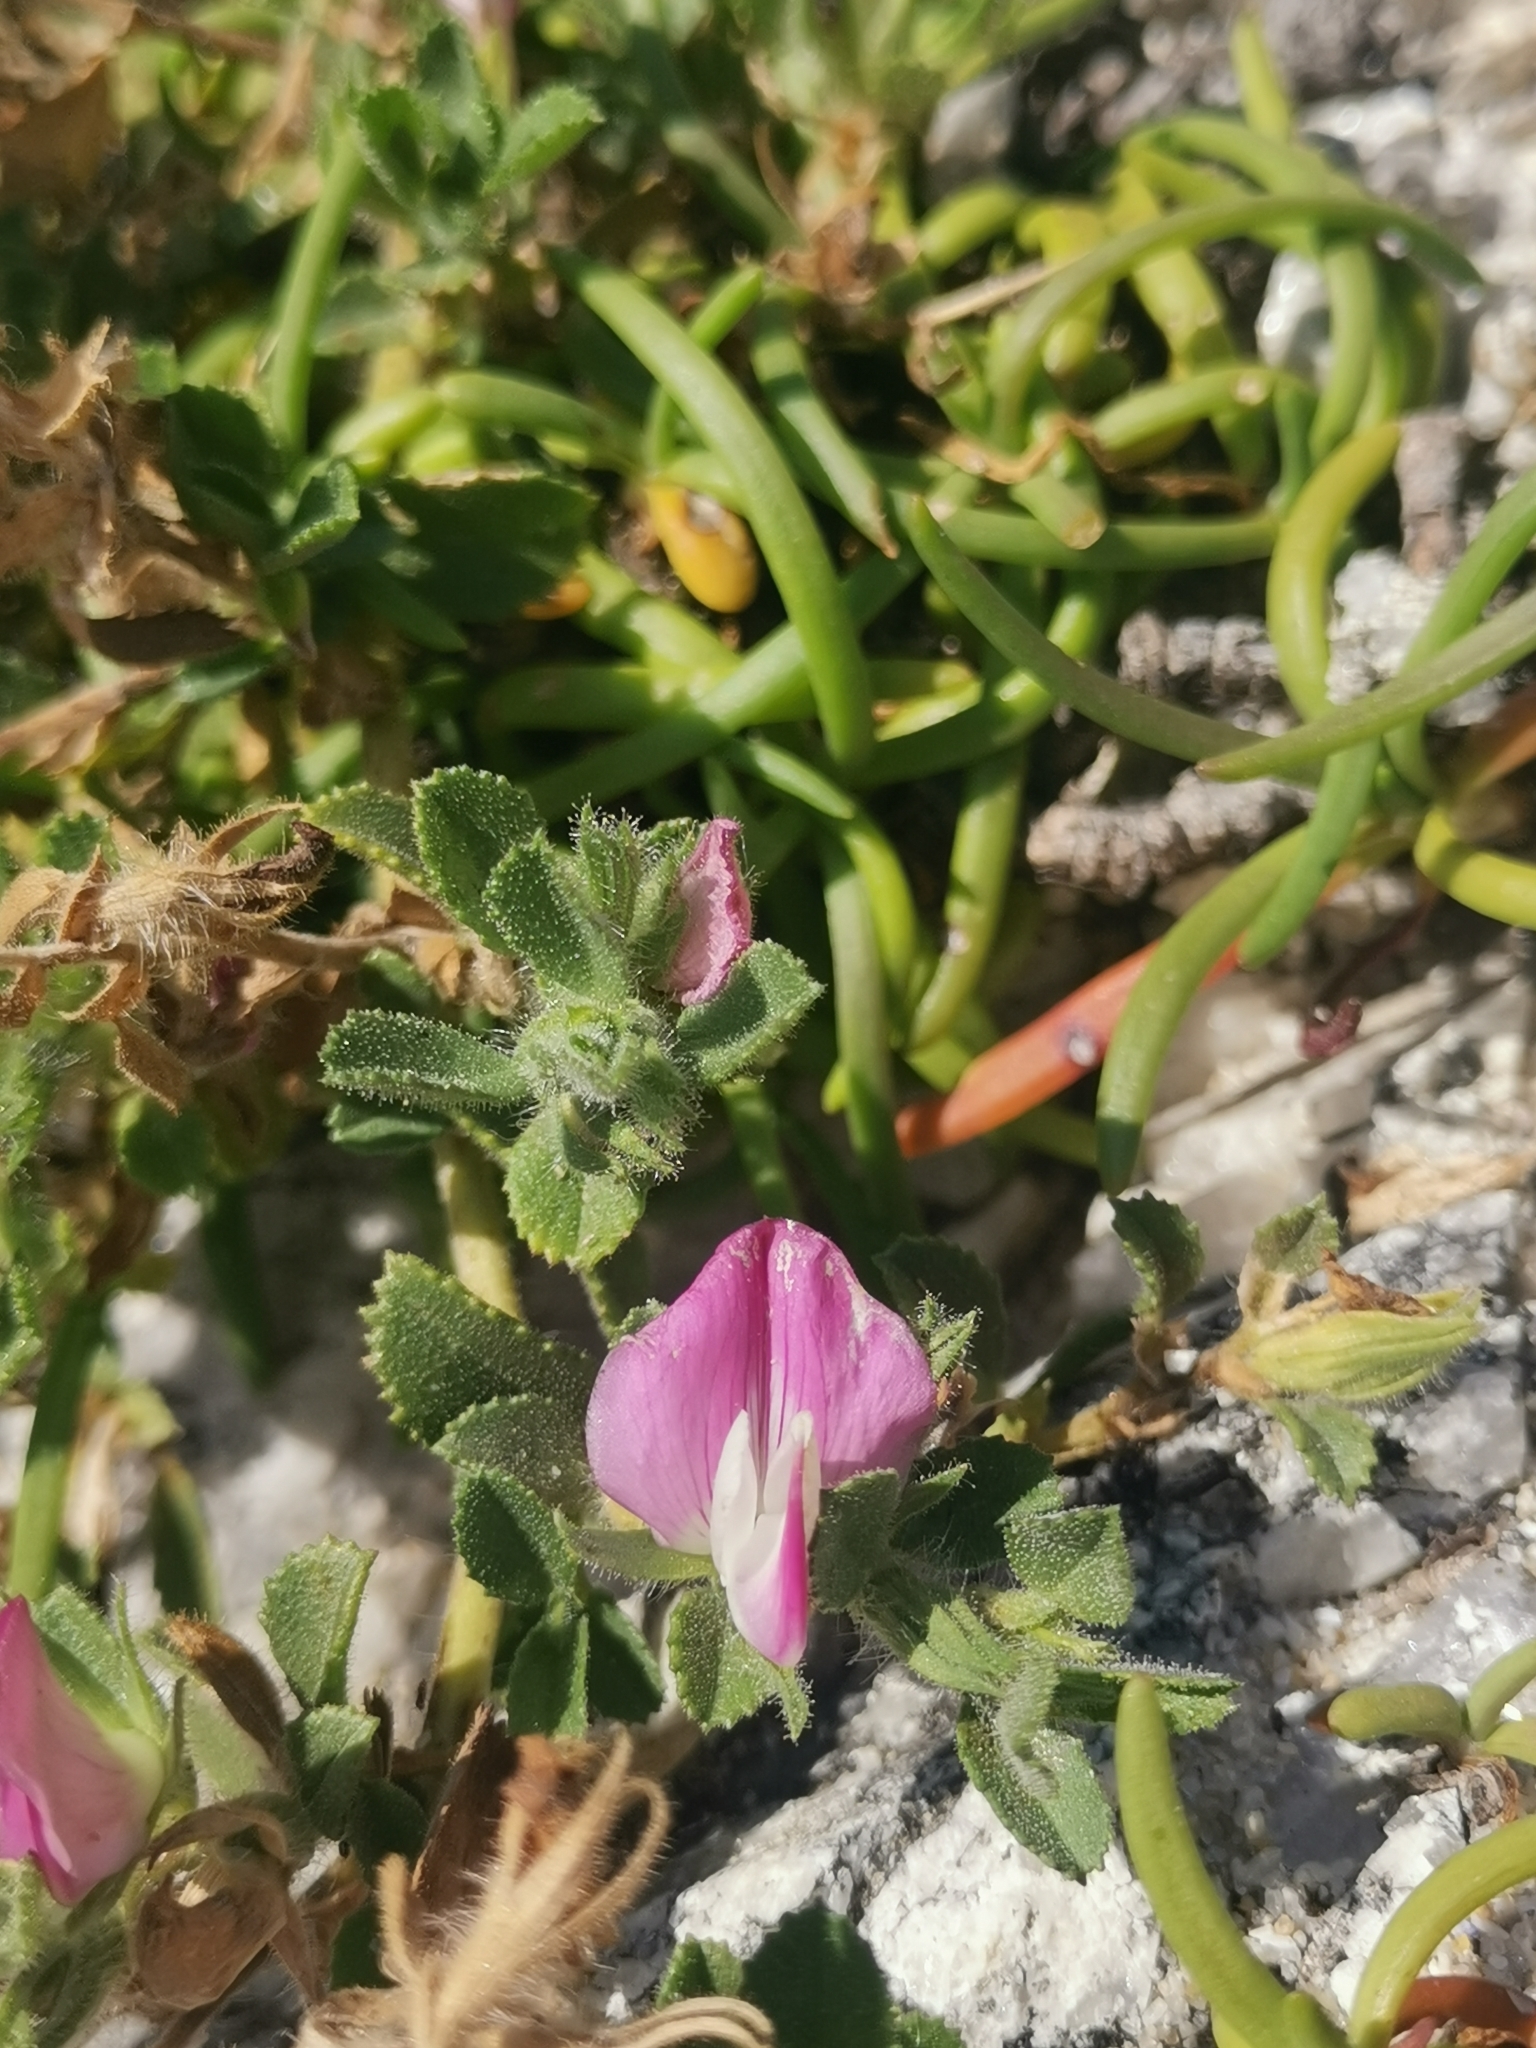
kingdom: Plantae
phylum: Tracheophyta
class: Magnoliopsida
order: Fabales
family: Fabaceae
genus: Ononis
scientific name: Ononis spinosa
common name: Spiny restharrow
